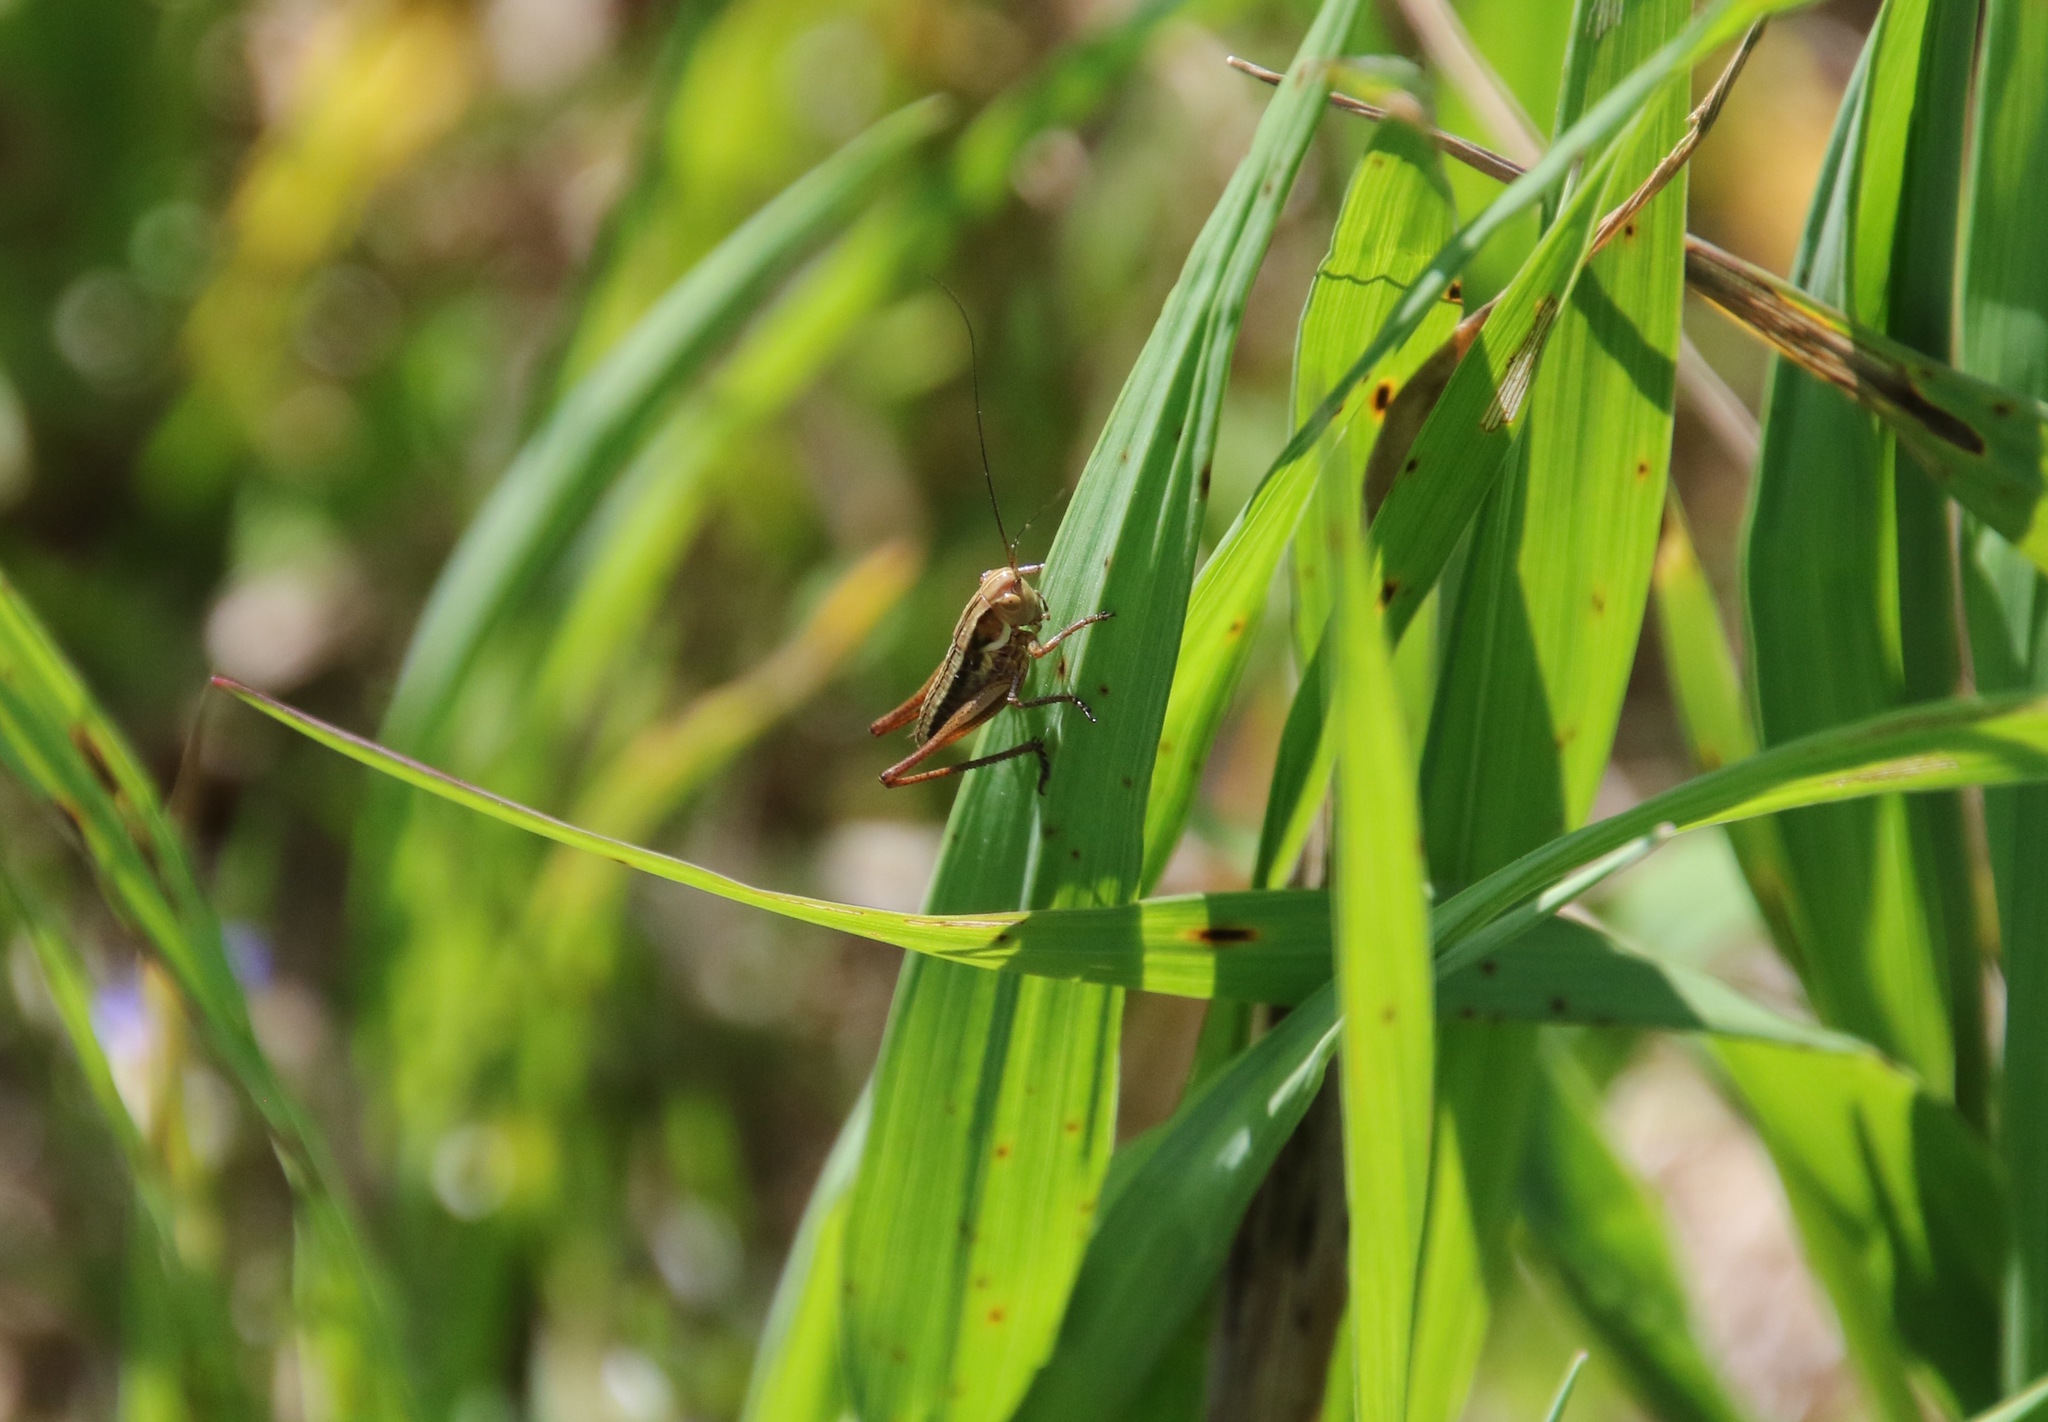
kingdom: Animalia
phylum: Arthropoda
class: Insecta
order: Orthoptera
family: Tettigoniidae
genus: Roeseliana
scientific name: Roeseliana roeselii
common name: Roesel's bush cricket
